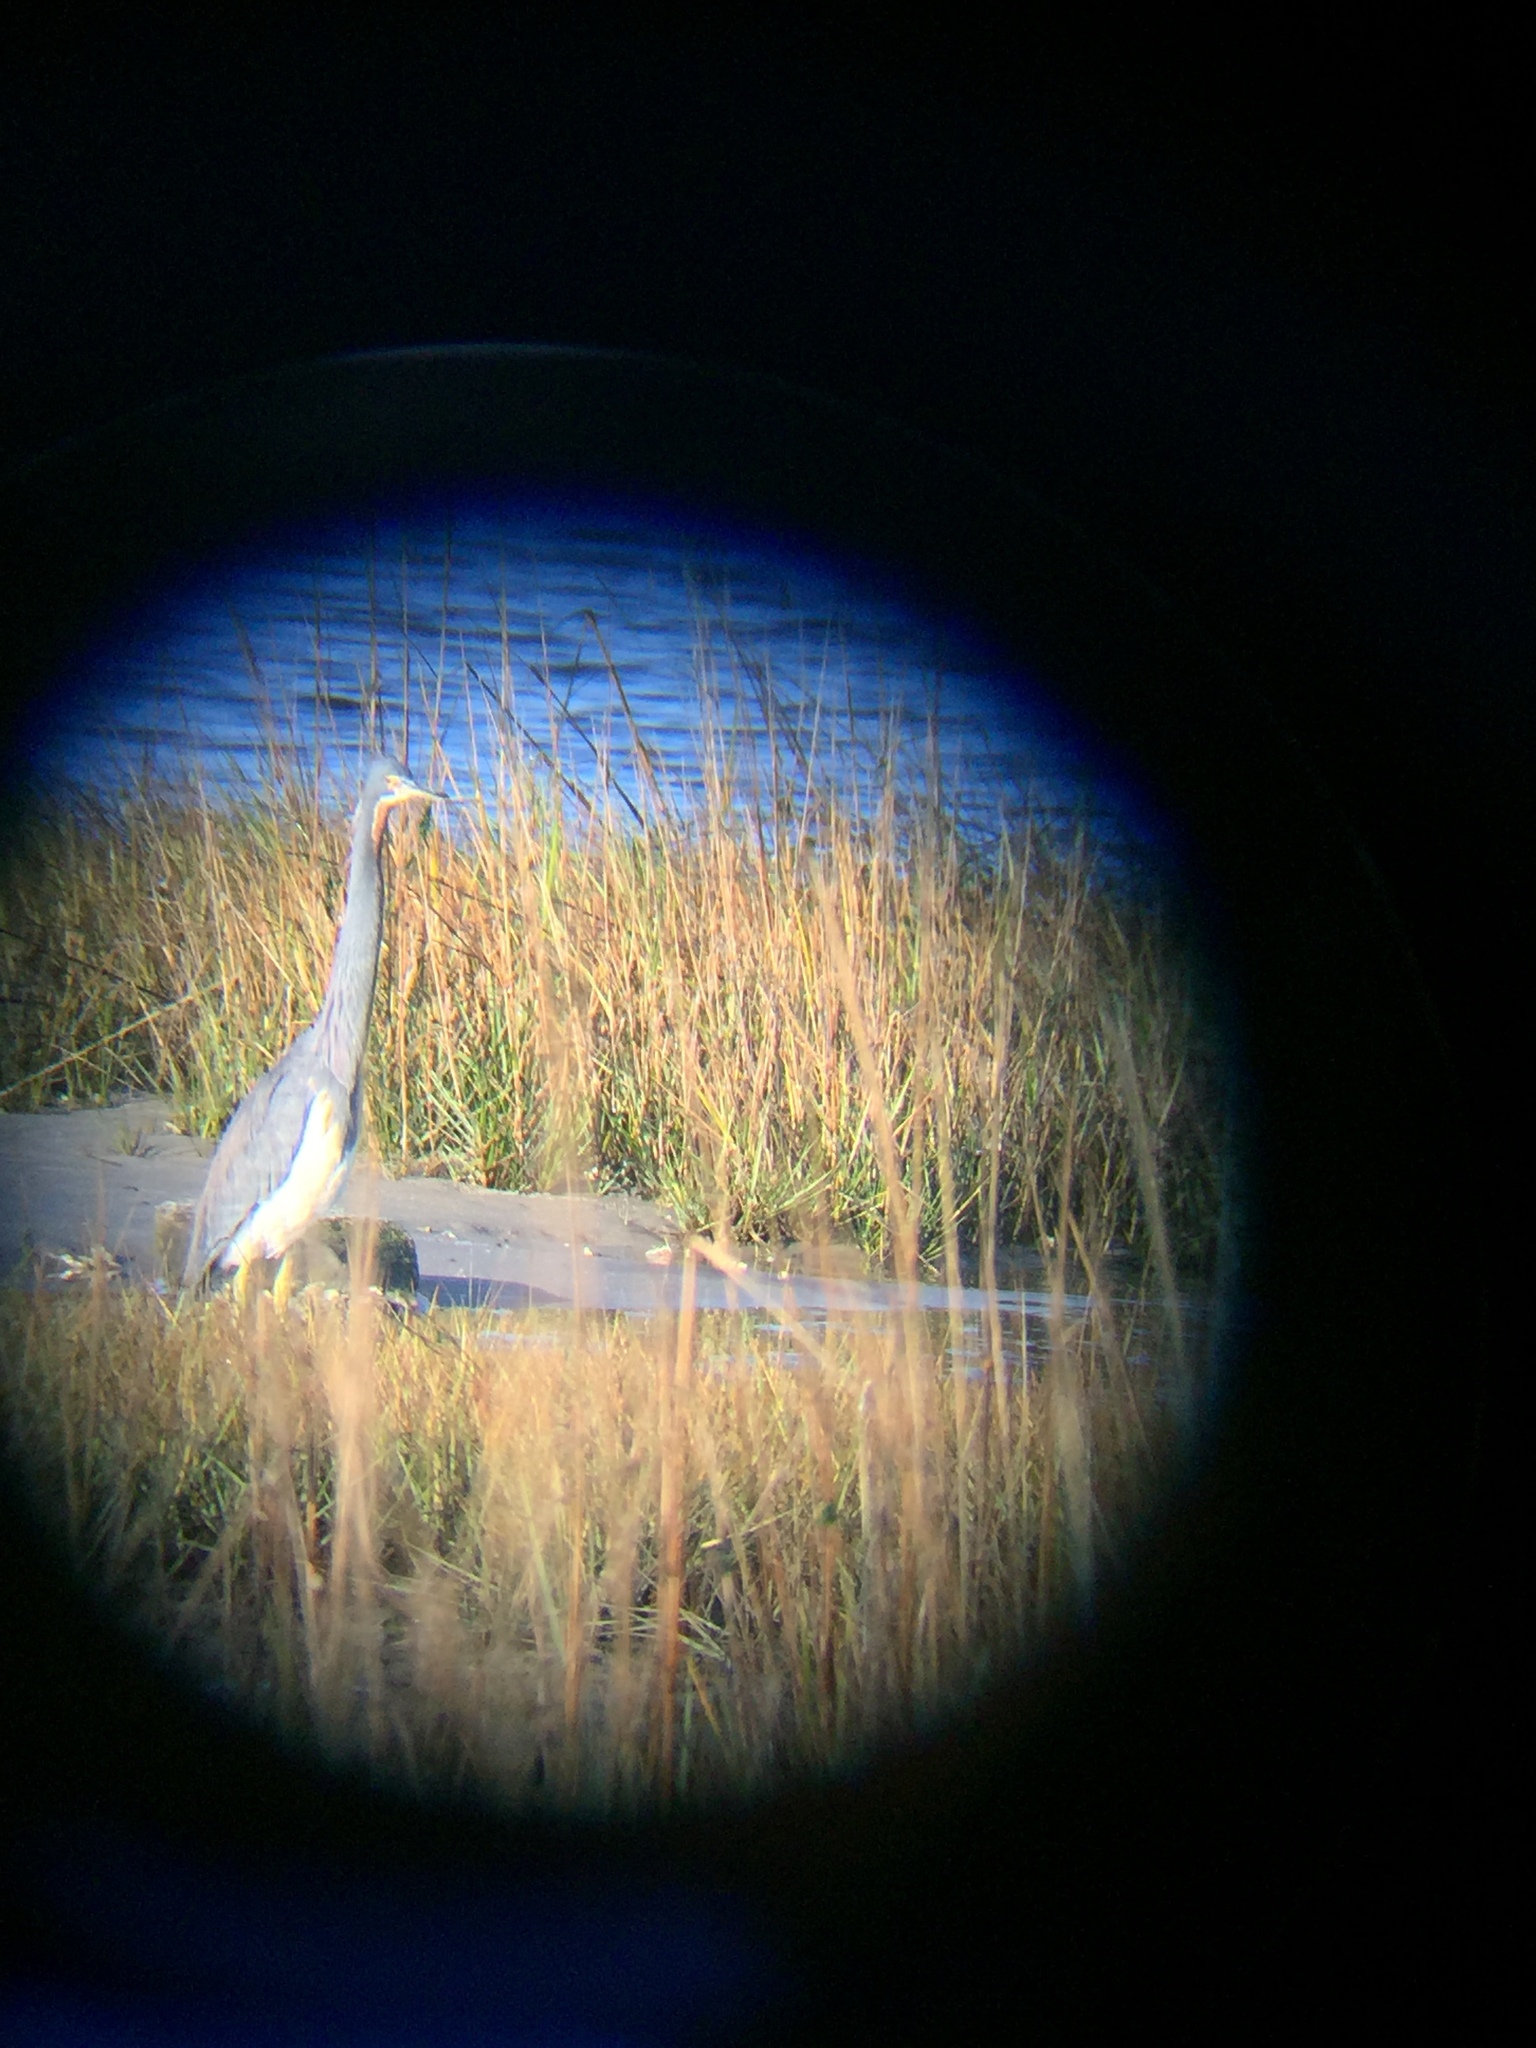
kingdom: Animalia
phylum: Chordata
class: Aves
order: Pelecaniformes
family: Ardeidae
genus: Egretta
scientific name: Egretta tricolor
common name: Tricolored heron
